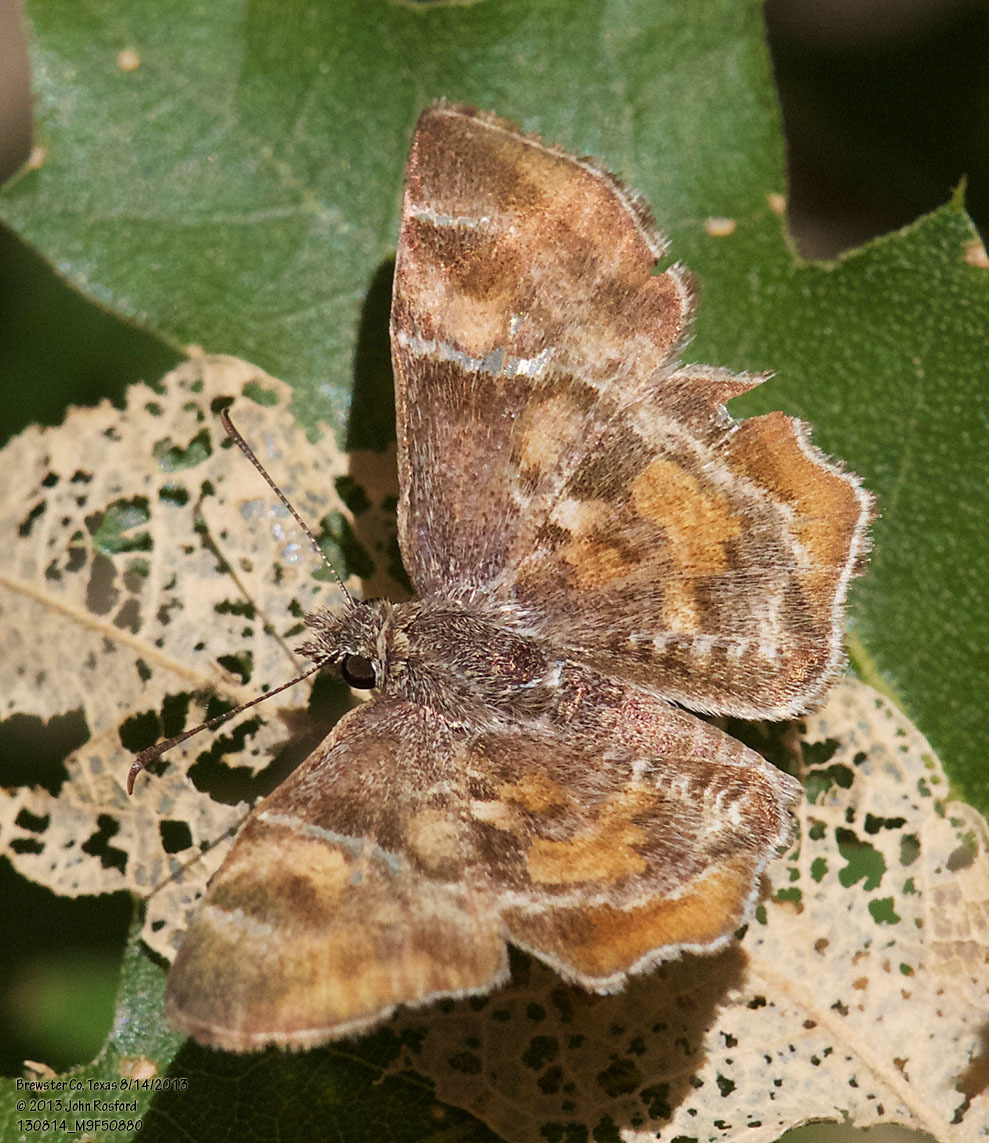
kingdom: Animalia
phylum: Arthropoda
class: Insecta
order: Lepidoptera
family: Hesperiidae
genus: Systasea
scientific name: Systasea pulverulenta
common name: Texas powdered skipper
